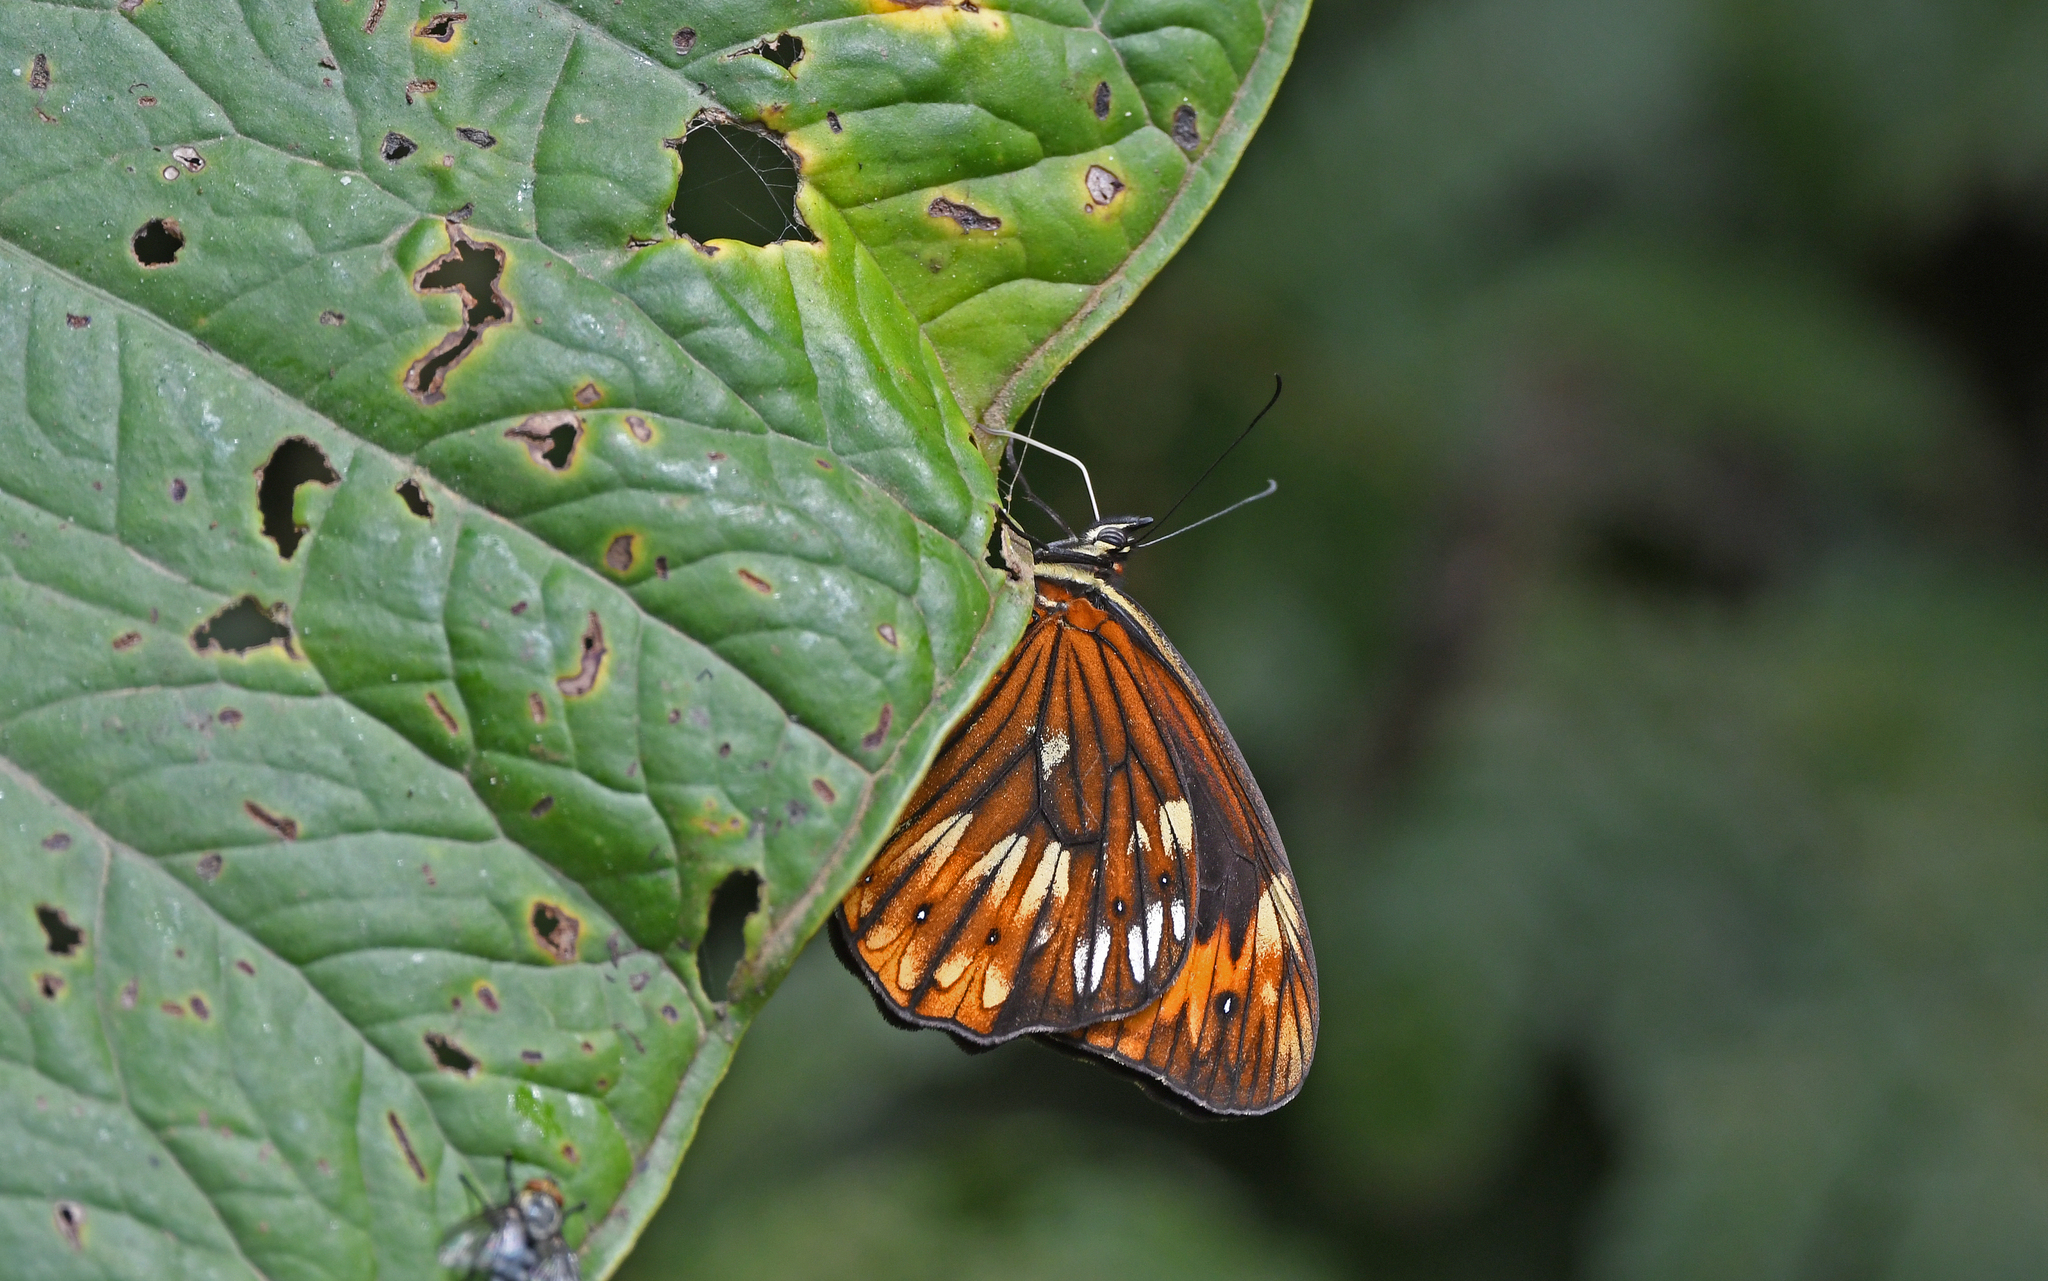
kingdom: Animalia
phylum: Arthropoda
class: Insecta
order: Lepidoptera
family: Nymphalidae
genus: Oxeoschistus
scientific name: Oxeoschistus pronax
